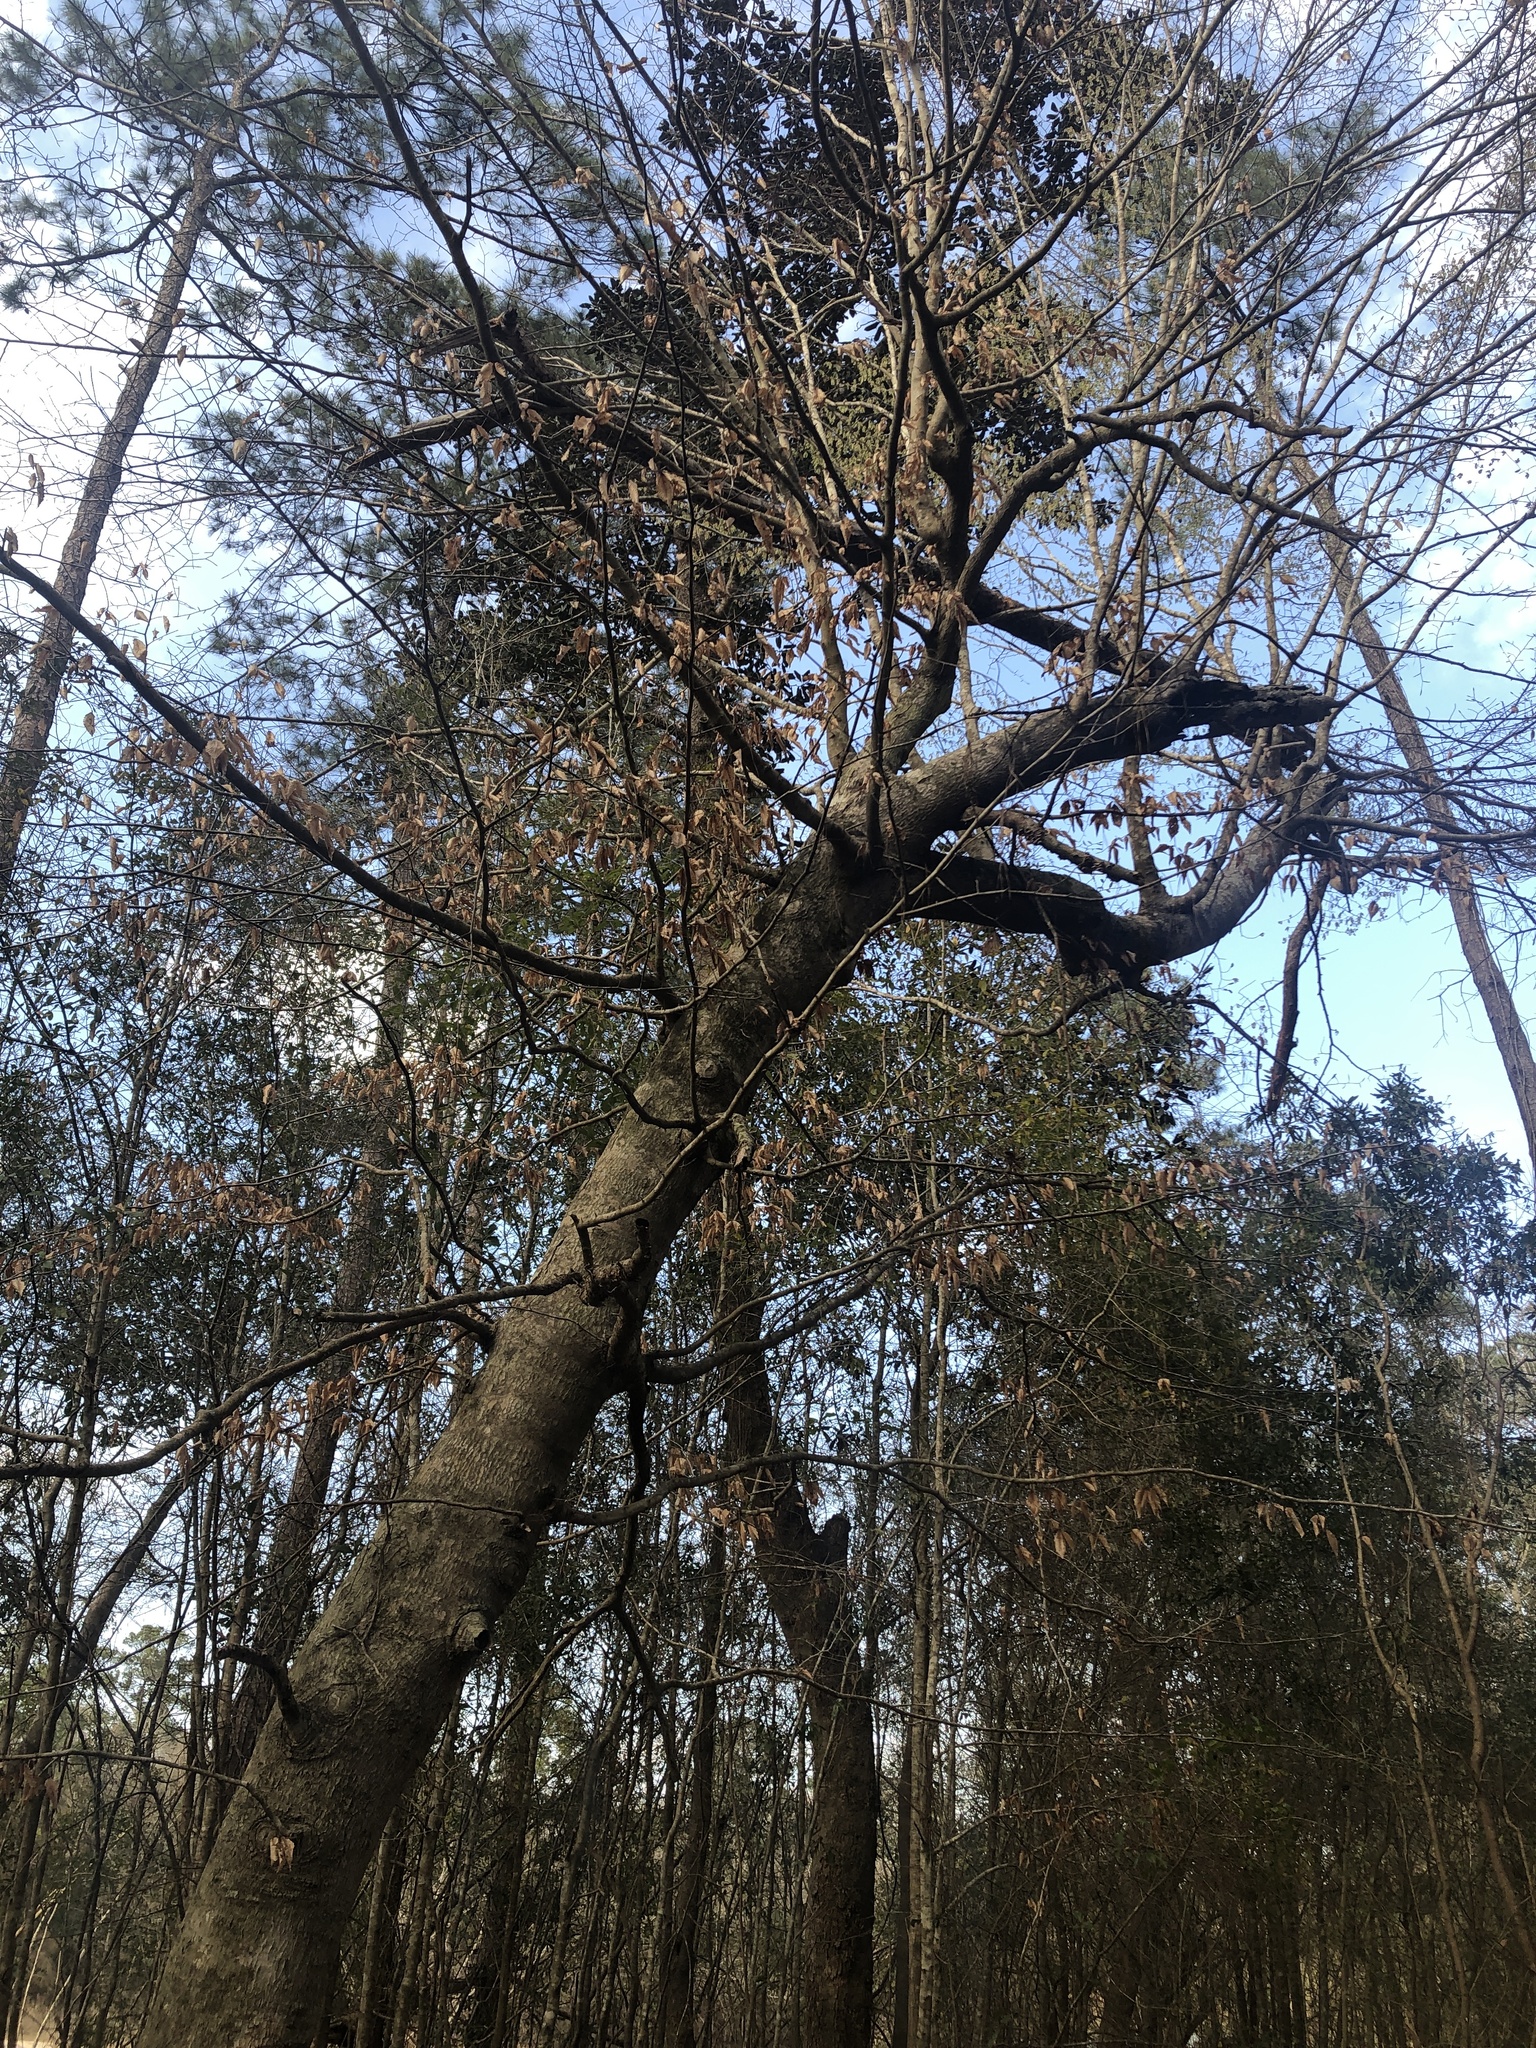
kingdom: Plantae
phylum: Tracheophyta
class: Magnoliopsida
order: Fagales
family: Betulaceae
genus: Betula
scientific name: Betula nigra
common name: Black birch
